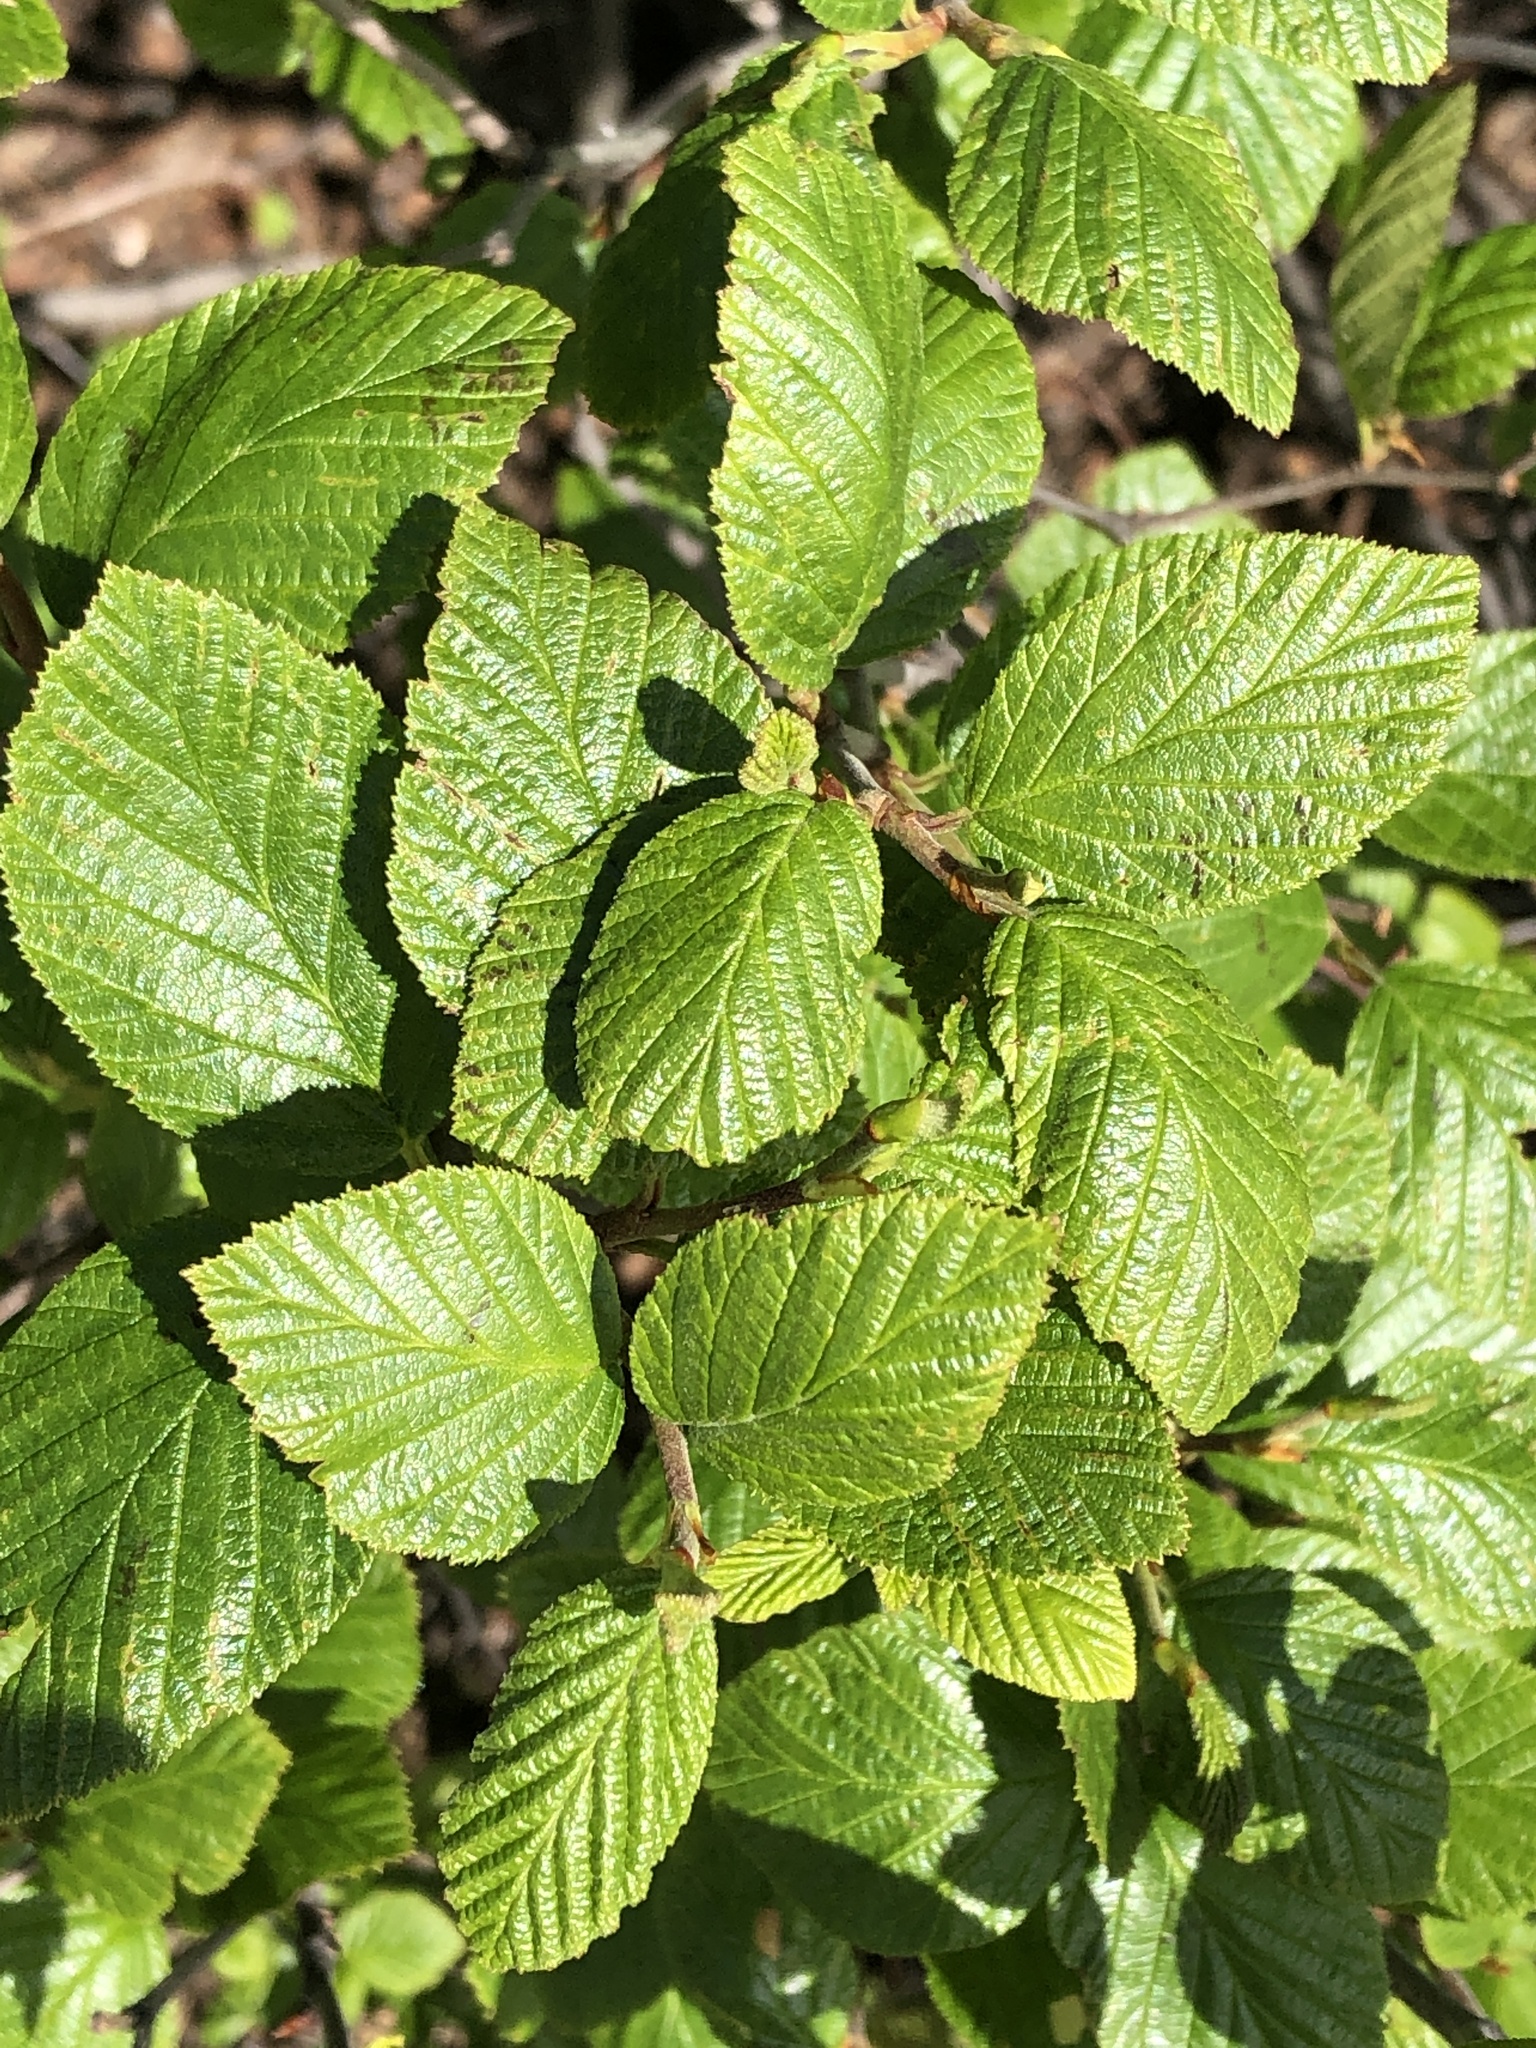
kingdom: Plantae
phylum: Tracheophyta
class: Magnoliopsida
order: Fagales
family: Betulaceae
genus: Alnus
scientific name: Alnus alnobetula
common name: Green alder
